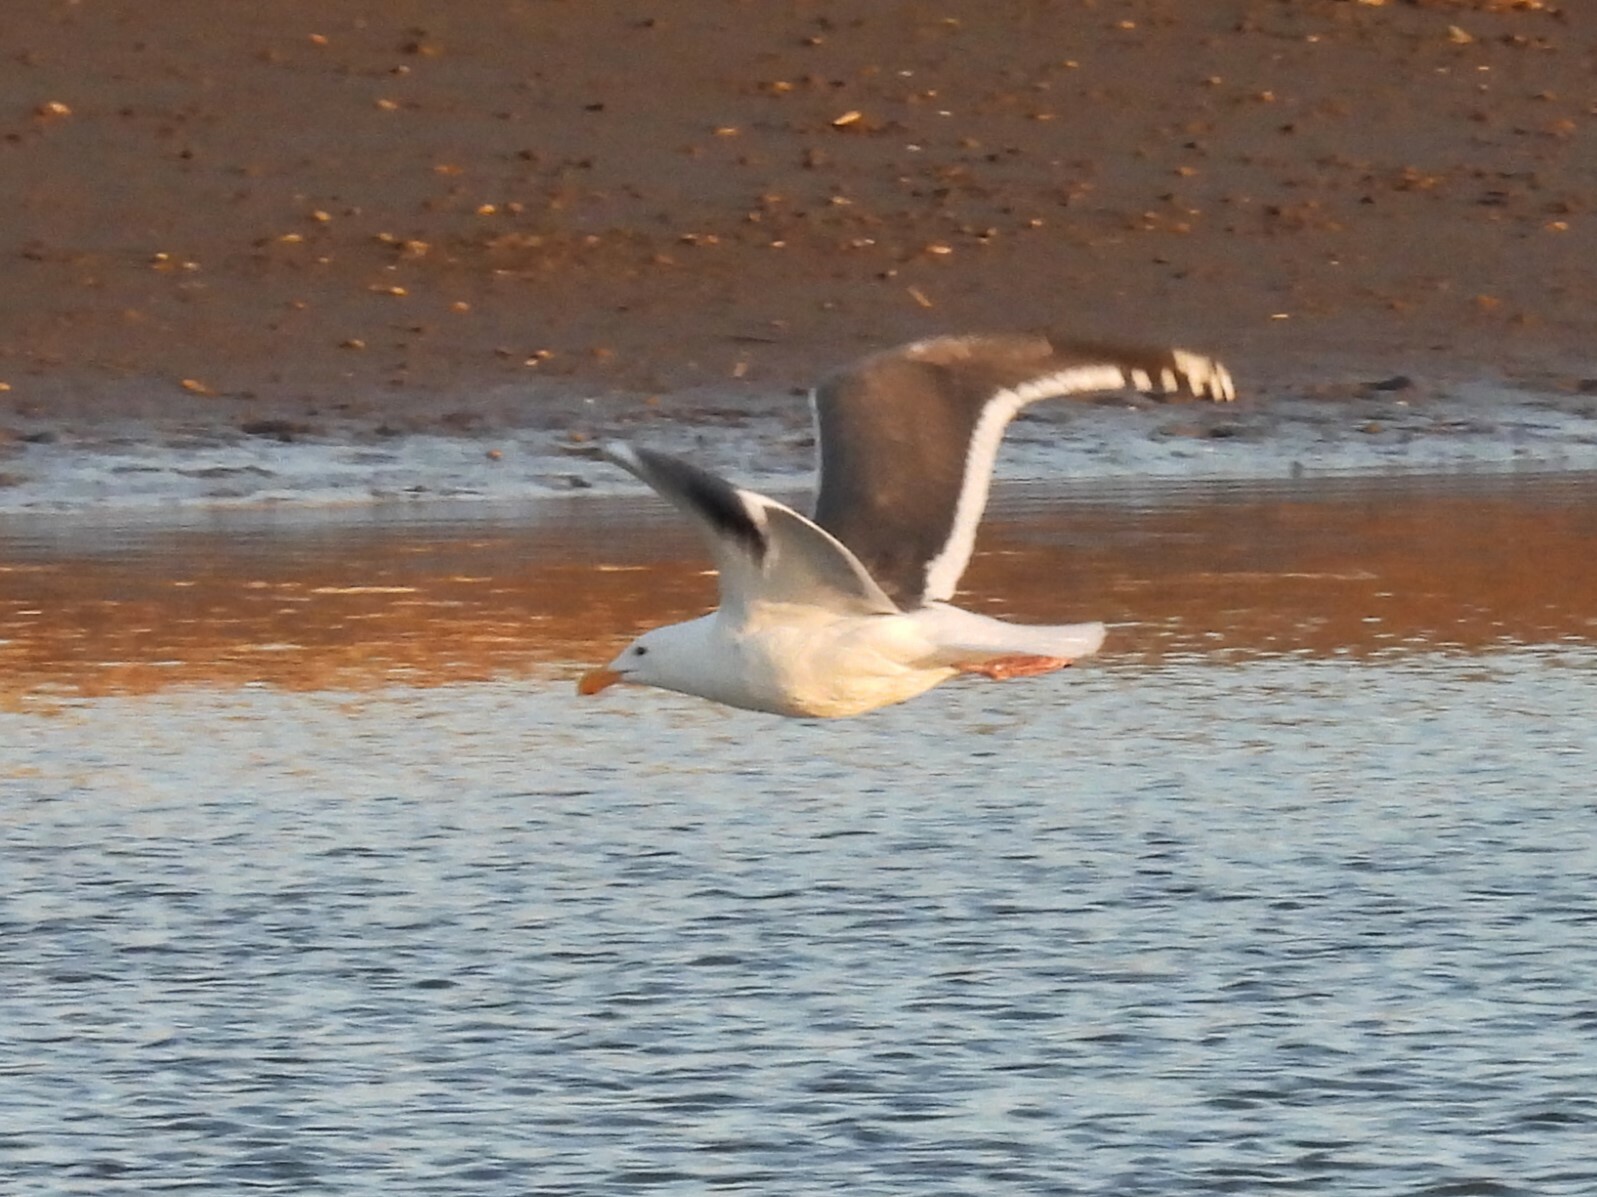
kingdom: Animalia
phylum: Chordata
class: Aves
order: Charadriiformes
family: Laridae
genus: Larus
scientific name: Larus occidentalis
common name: Western gull
